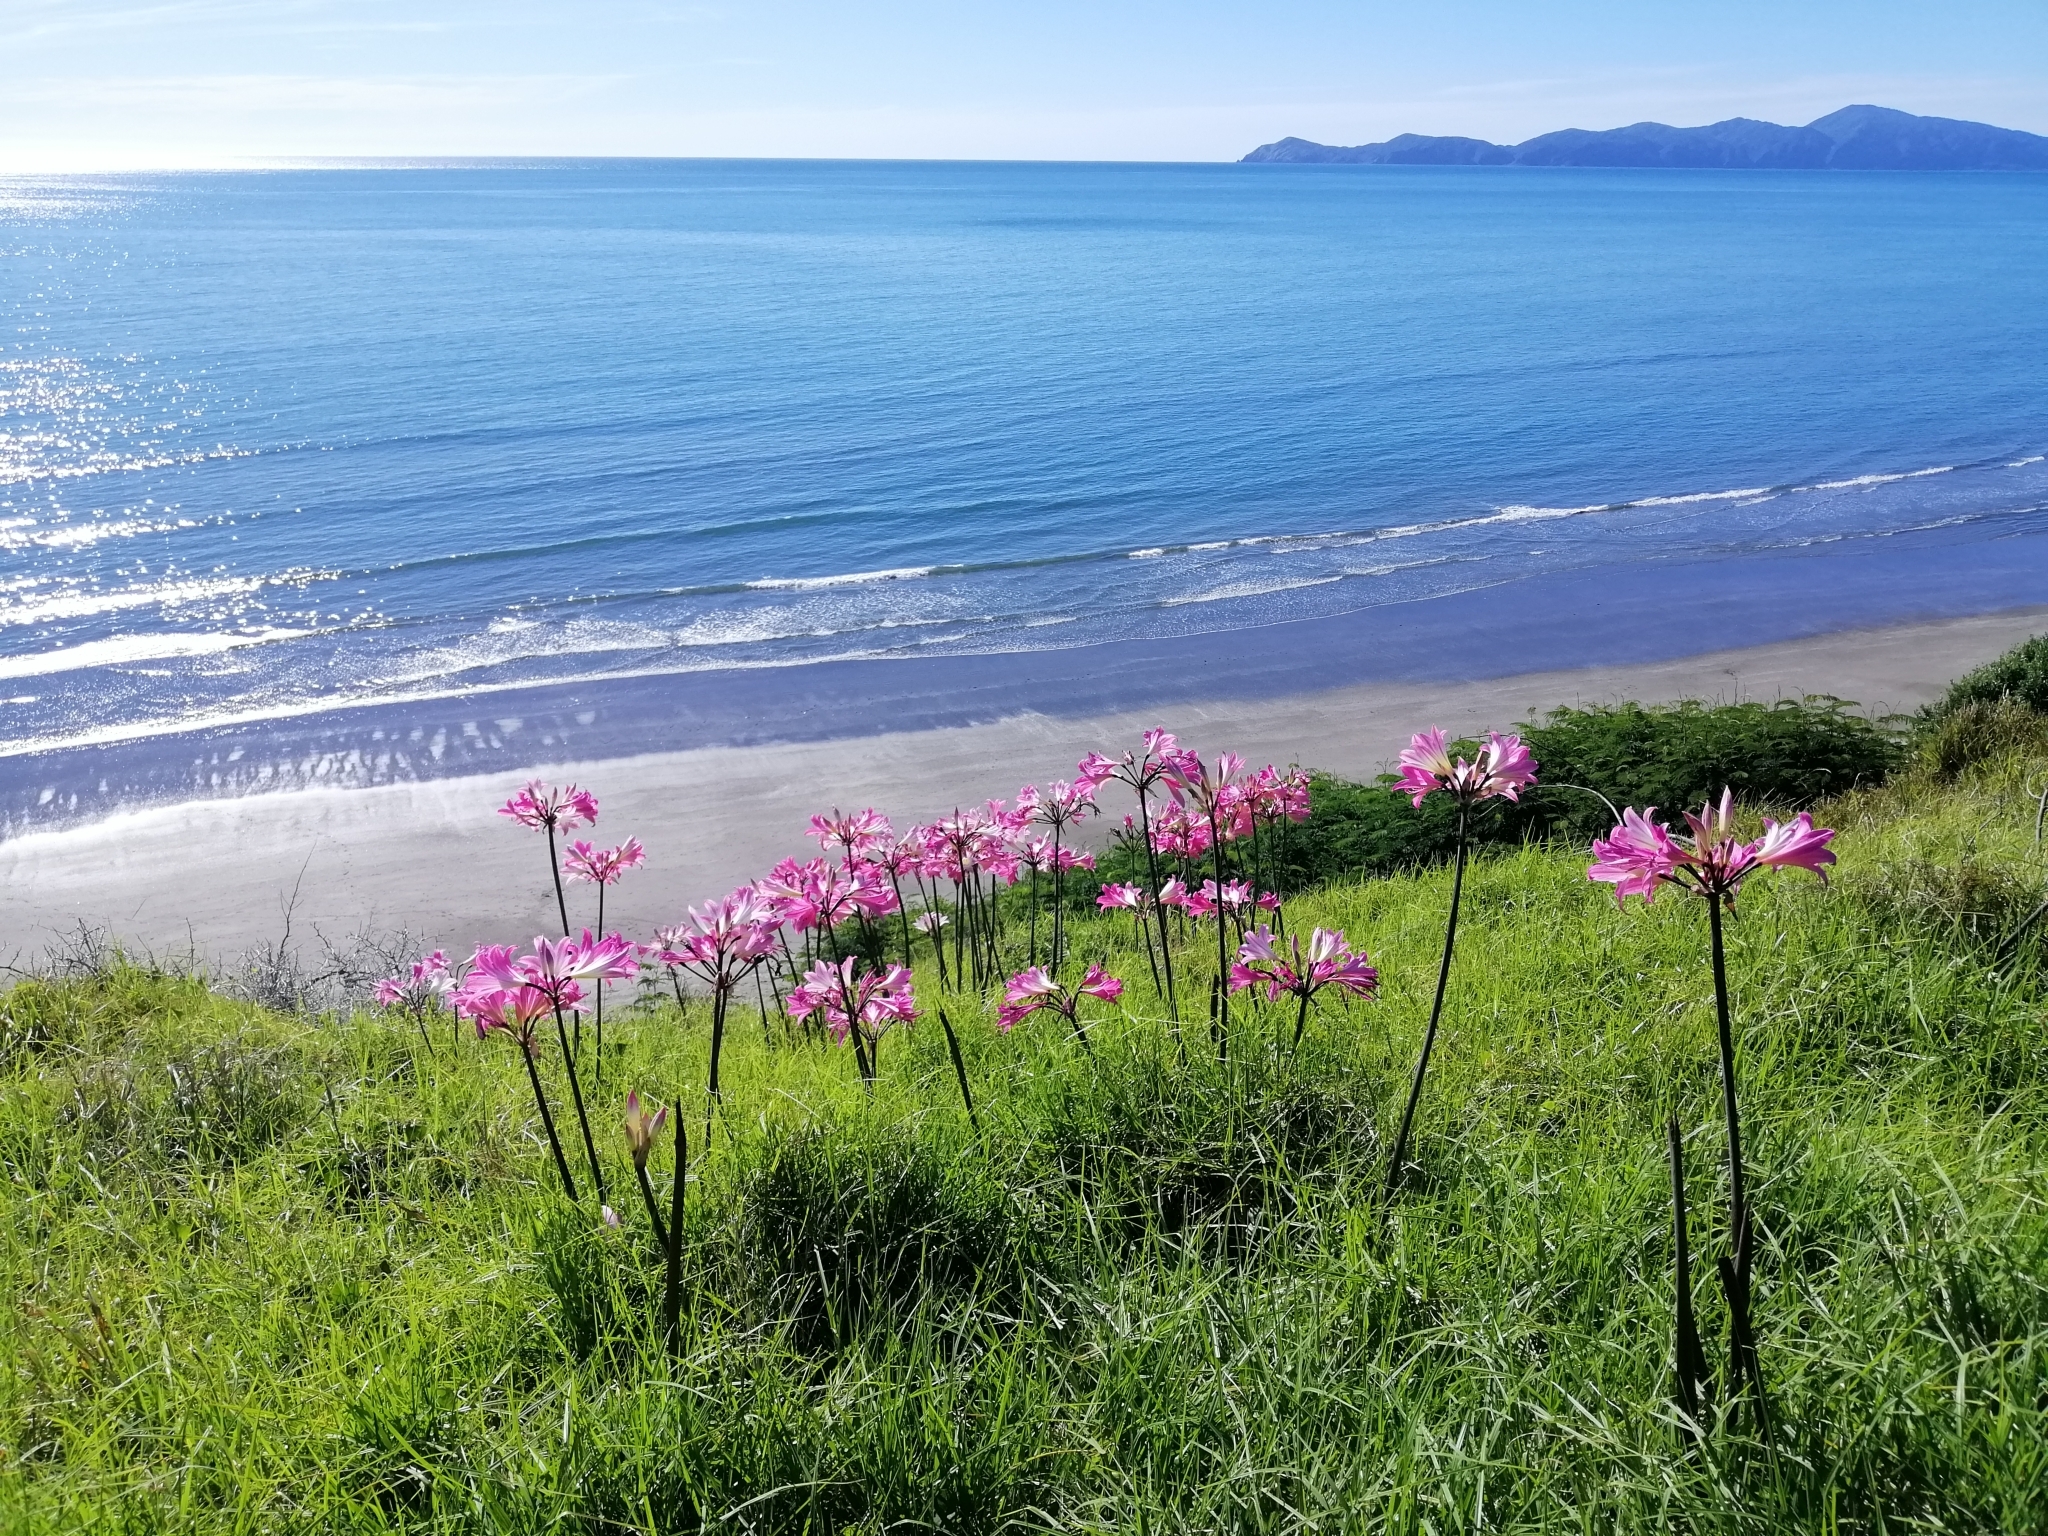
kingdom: Plantae
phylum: Tracheophyta
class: Liliopsida
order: Asparagales
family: Amaryllidaceae
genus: Amaryllis
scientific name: Amaryllis belladonna
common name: Jersey lily
